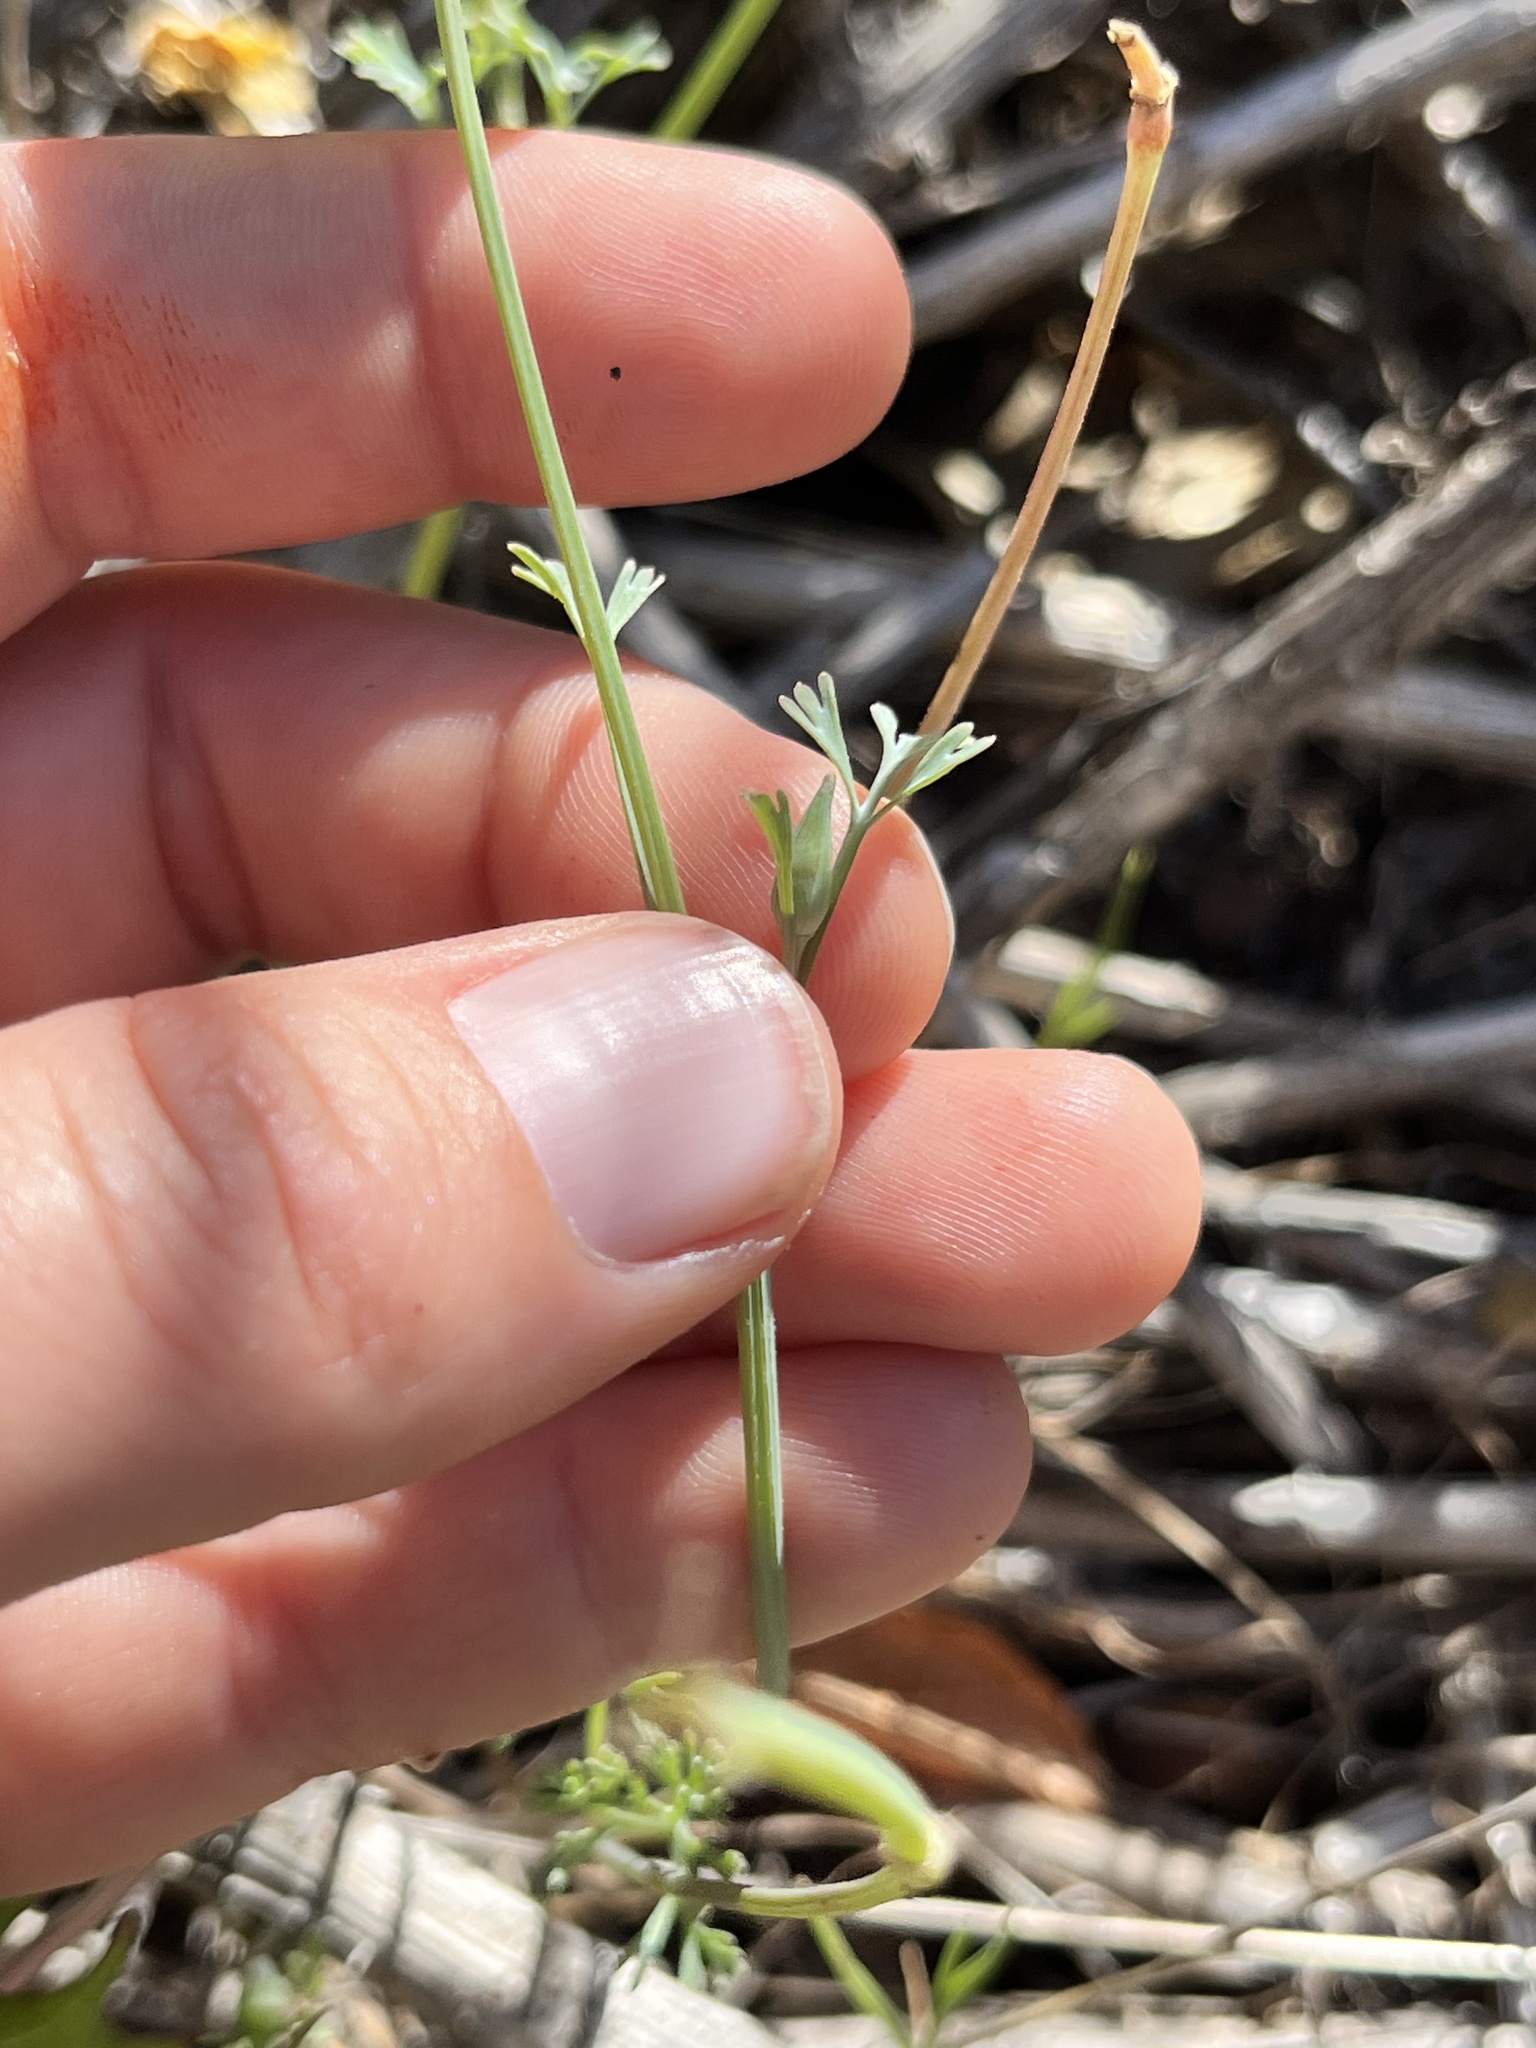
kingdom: Plantae
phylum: Tracheophyta
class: Magnoliopsida
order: Ranunculales
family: Papaveraceae
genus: Eschscholzia
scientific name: Eschscholzia caespitosa
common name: Tufted california-poppy
